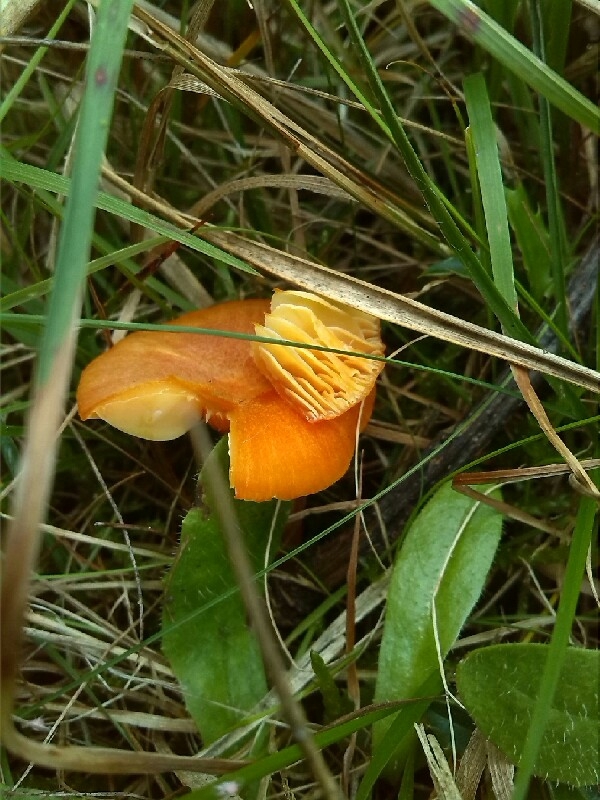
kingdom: Fungi
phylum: Basidiomycota
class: Agaricomycetes
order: Agaricales
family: Hygrophoraceae
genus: Hygrocybe
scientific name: Hygrocybe miniata
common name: Vermilion waxcap
